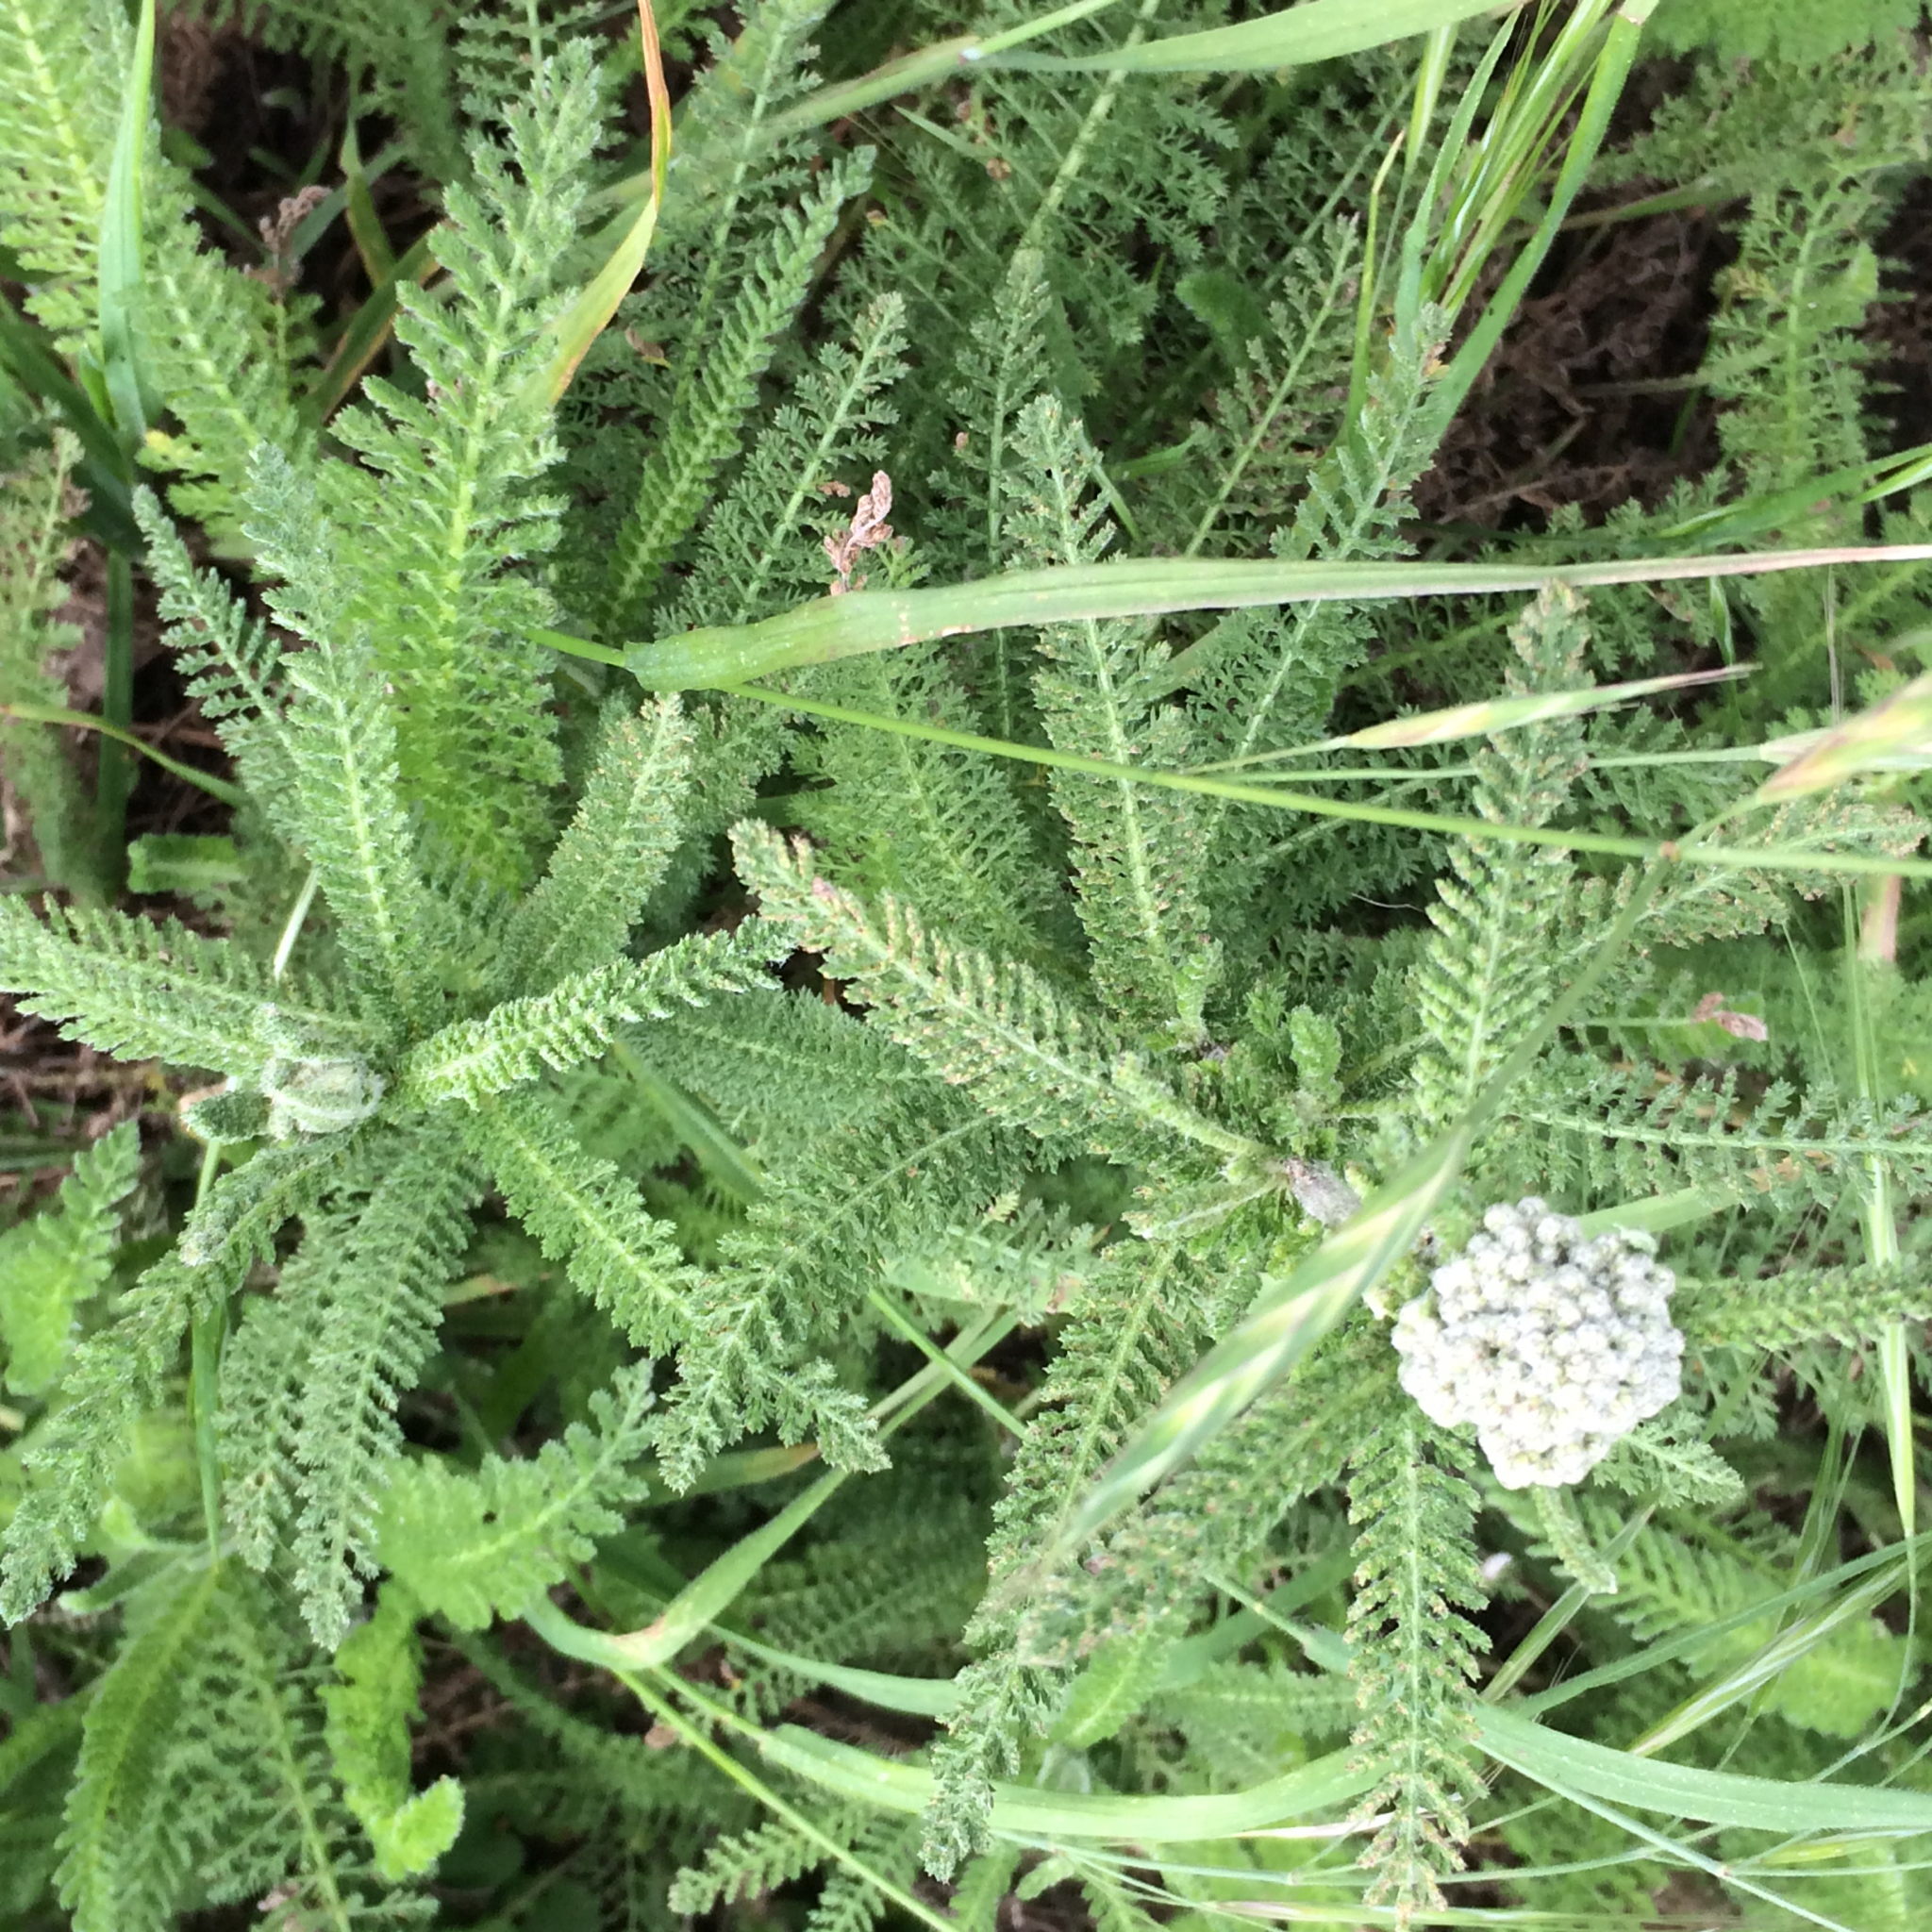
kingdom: Plantae
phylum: Tracheophyta
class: Magnoliopsida
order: Asterales
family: Asteraceae
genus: Achillea
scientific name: Achillea millefolium
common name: Yarrow
